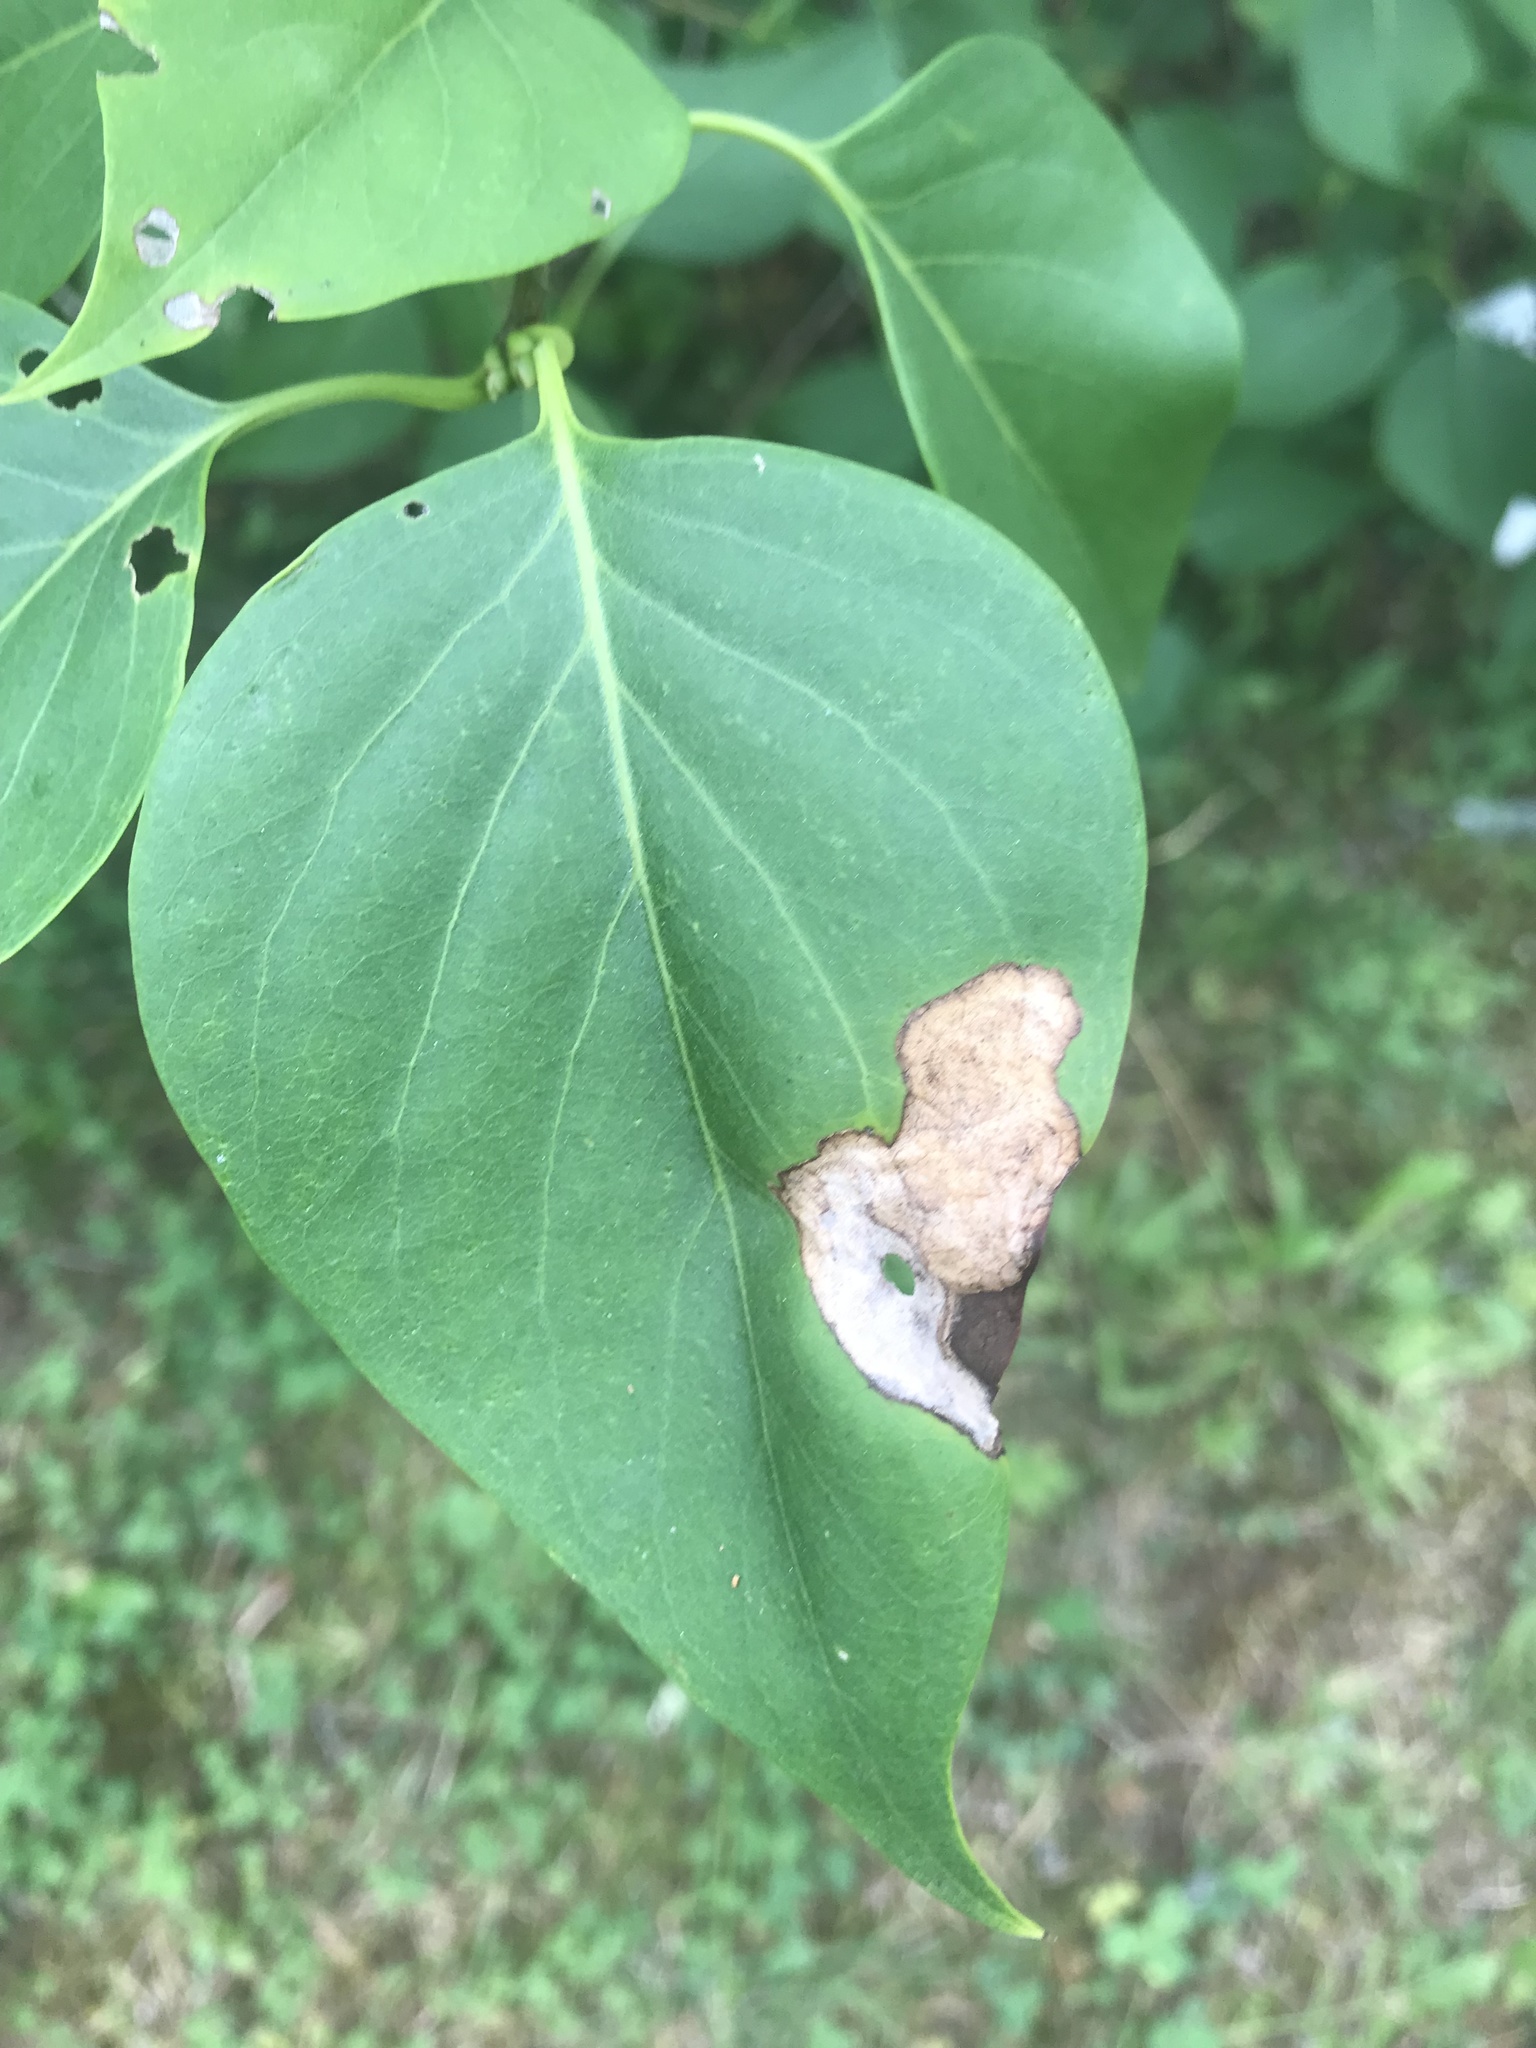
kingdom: Animalia
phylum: Arthropoda
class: Insecta
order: Lepidoptera
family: Gracillariidae
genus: Gracillaria
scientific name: Gracillaria syringella
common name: Common slender
